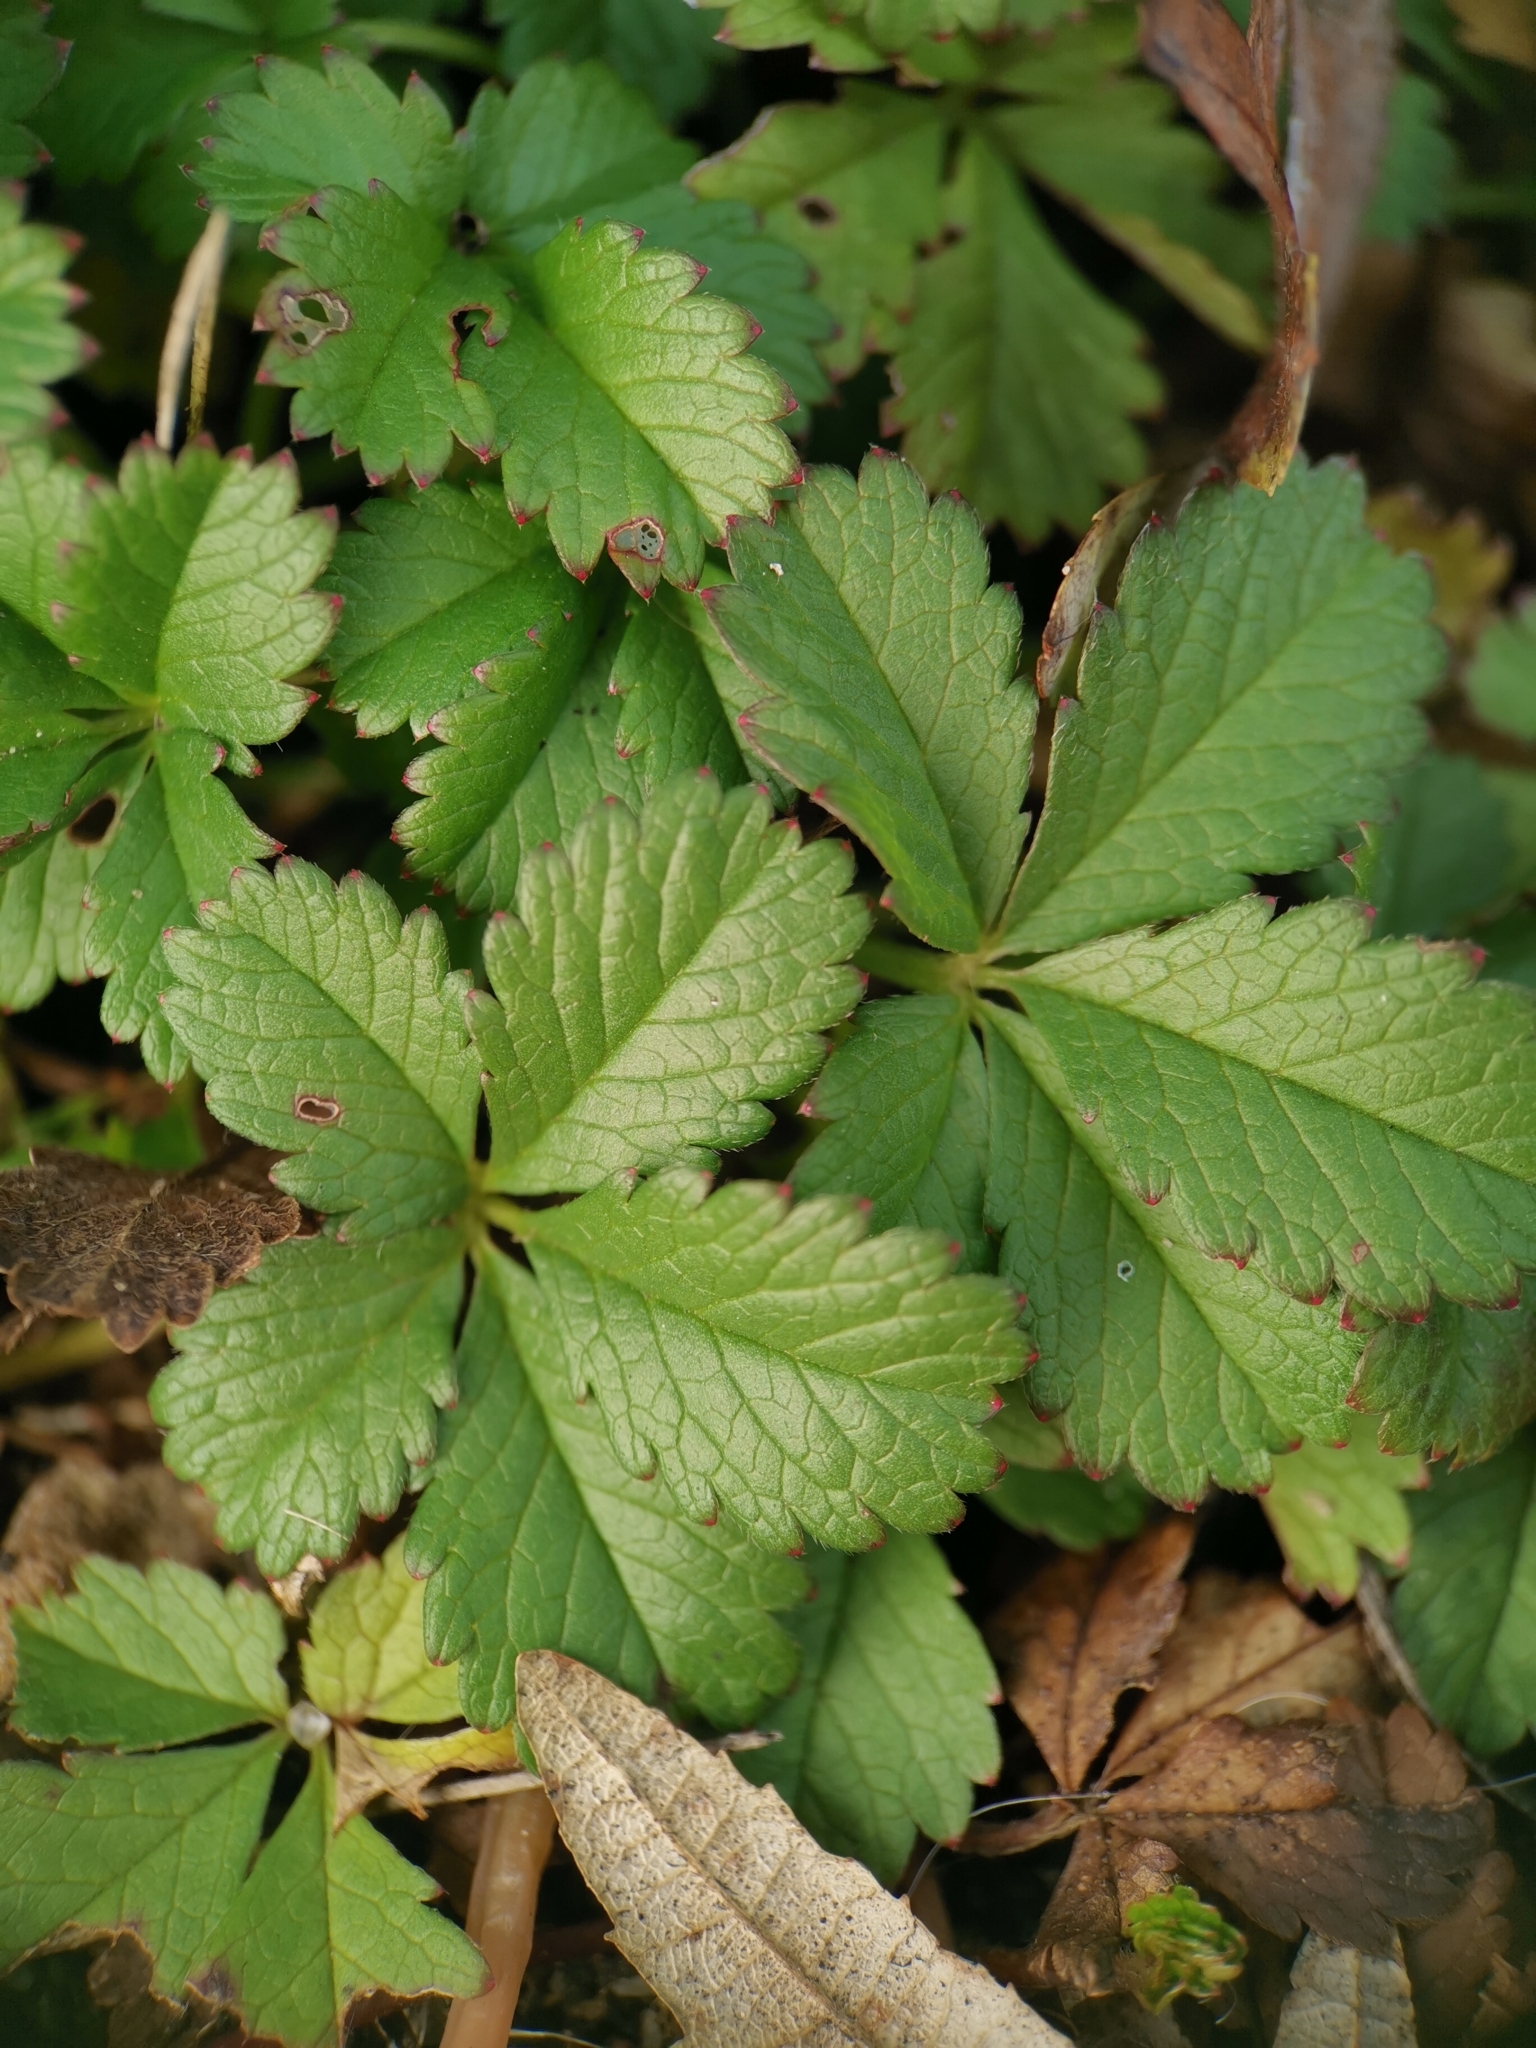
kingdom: Plantae
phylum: Tracheophyta
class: Magnoliopsida
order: Rosales
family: Rosaceae
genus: Potentilla
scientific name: Potentilla reptans
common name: Creeping cinquefoil
